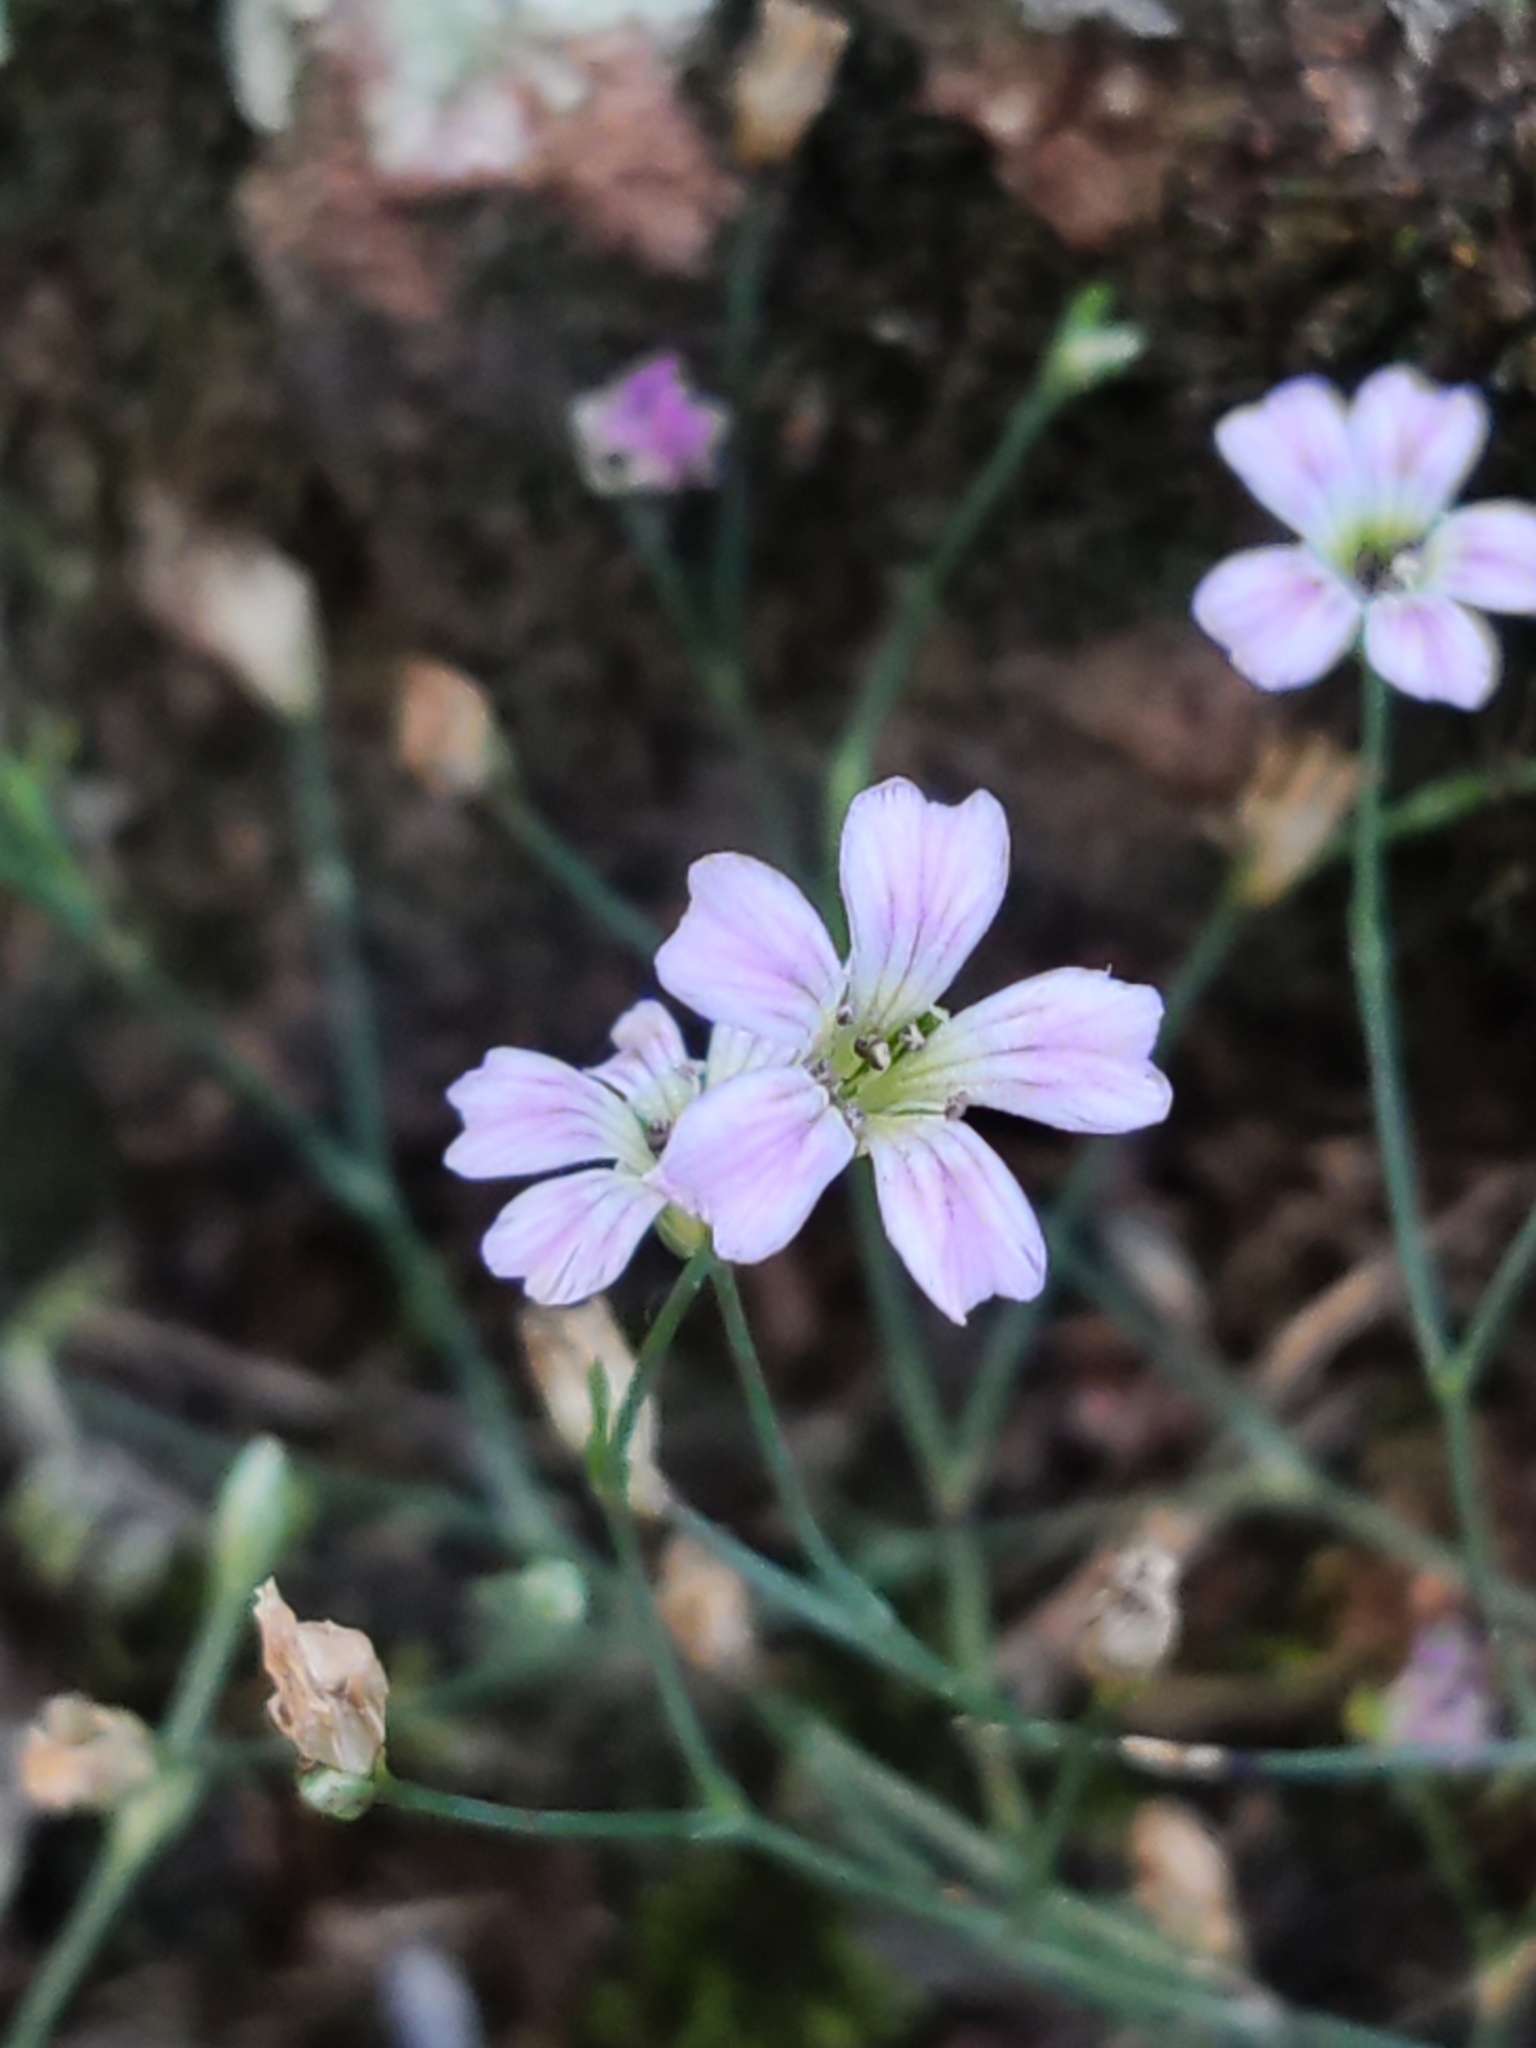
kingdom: Plantae
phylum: Tracheophyta
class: Magnoliopsida
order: Caryophyllales
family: Caryophyllaceae
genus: Petrorhagia
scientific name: Petrorhagia saxifraga
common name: Tunicflower
